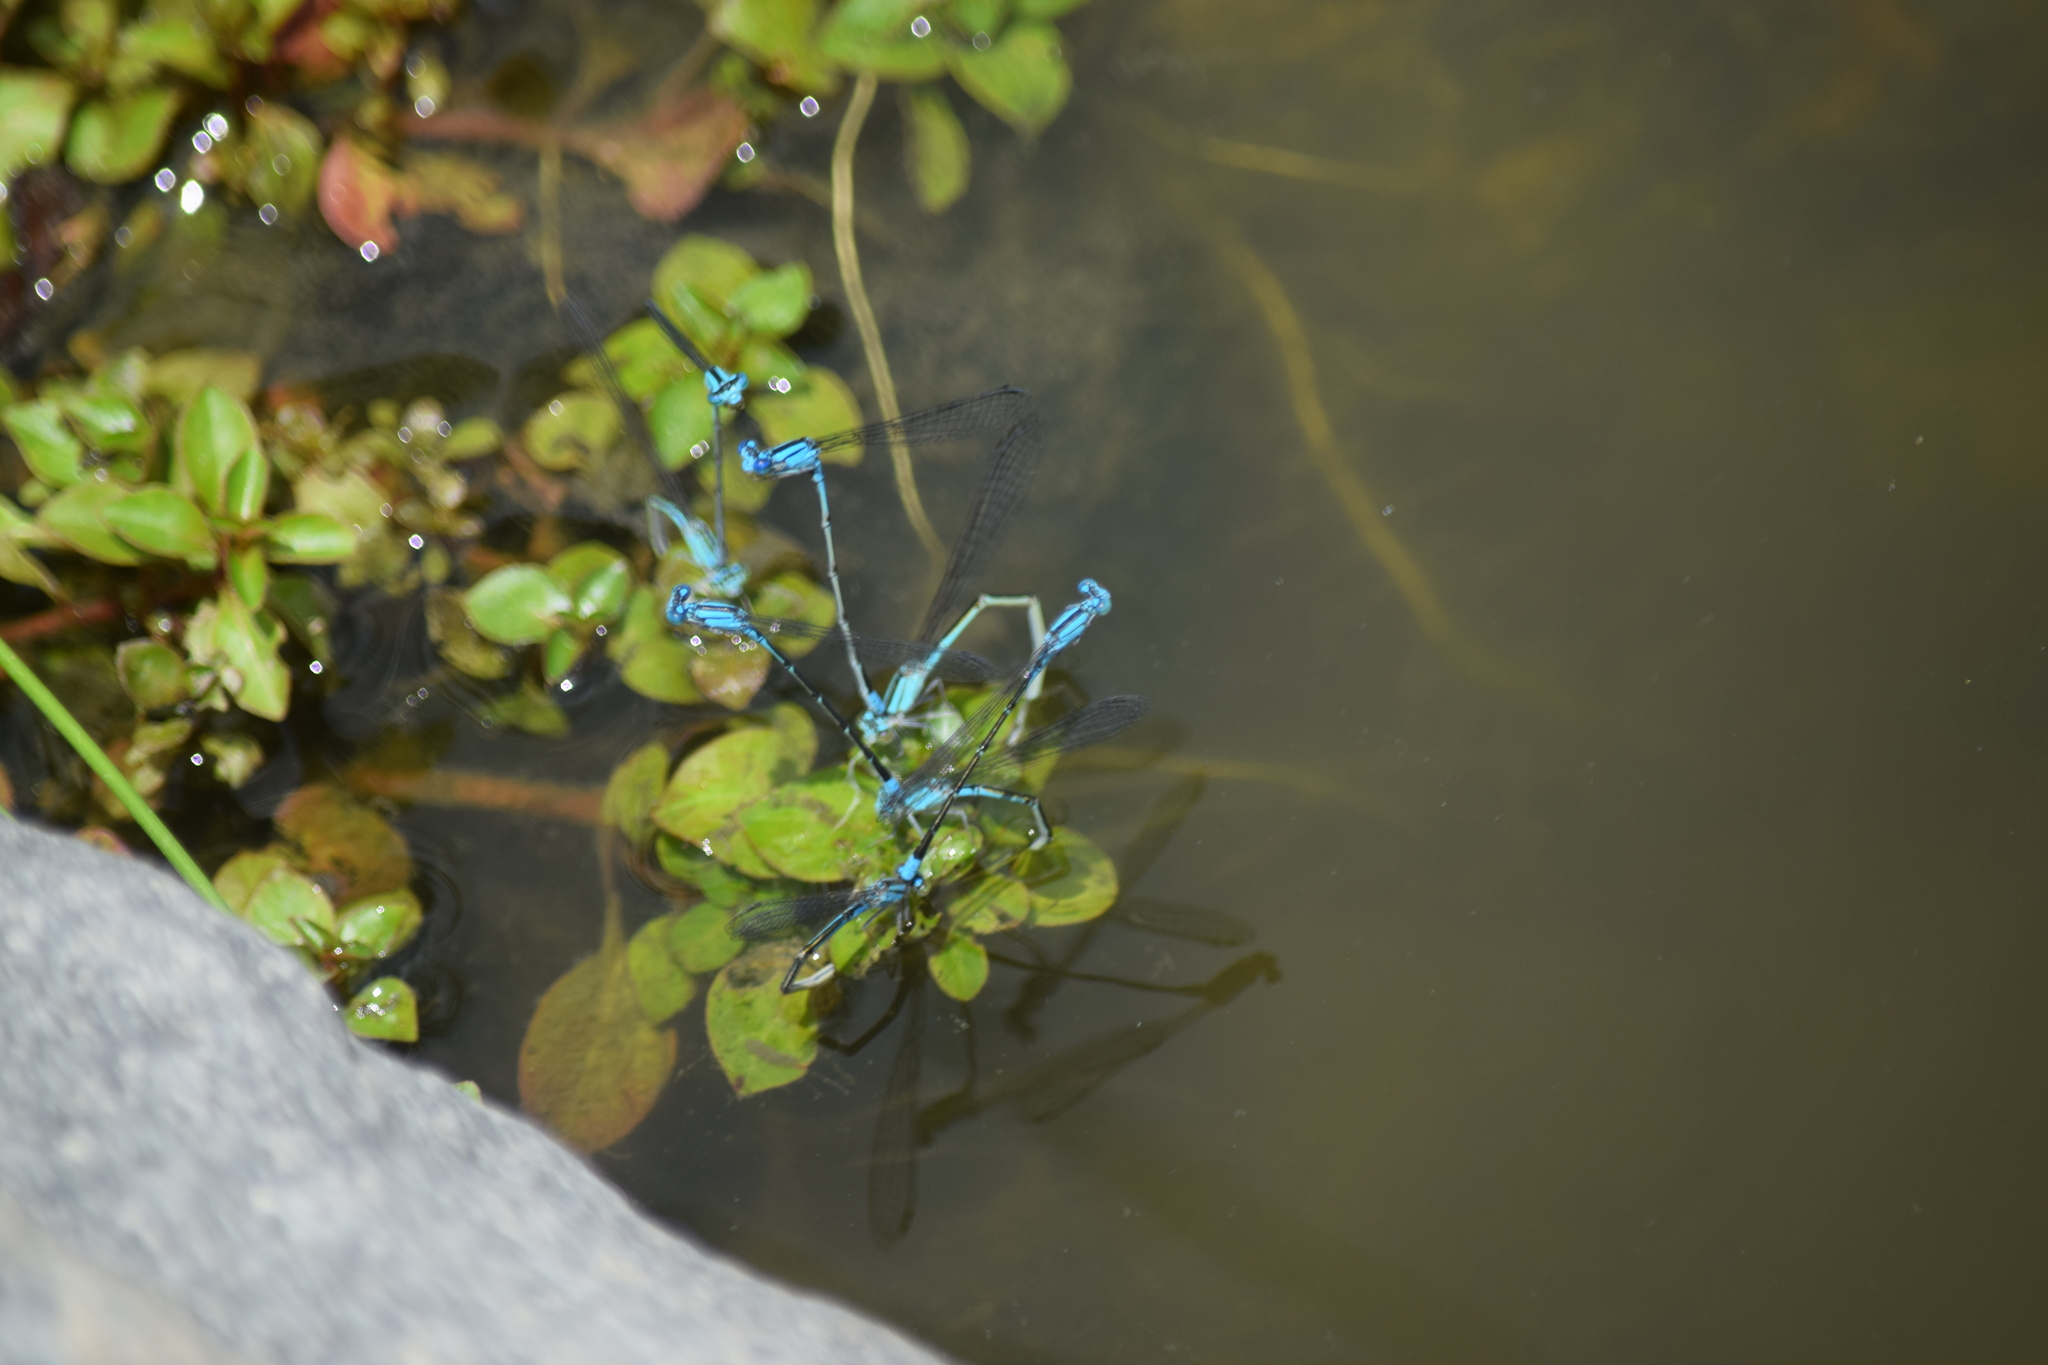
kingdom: Animalia
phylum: Arthropoda
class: Insecta
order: Odonata
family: Coenagrionidae
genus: Enallagma
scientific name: Enallagma traviatum
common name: Slender bluet
